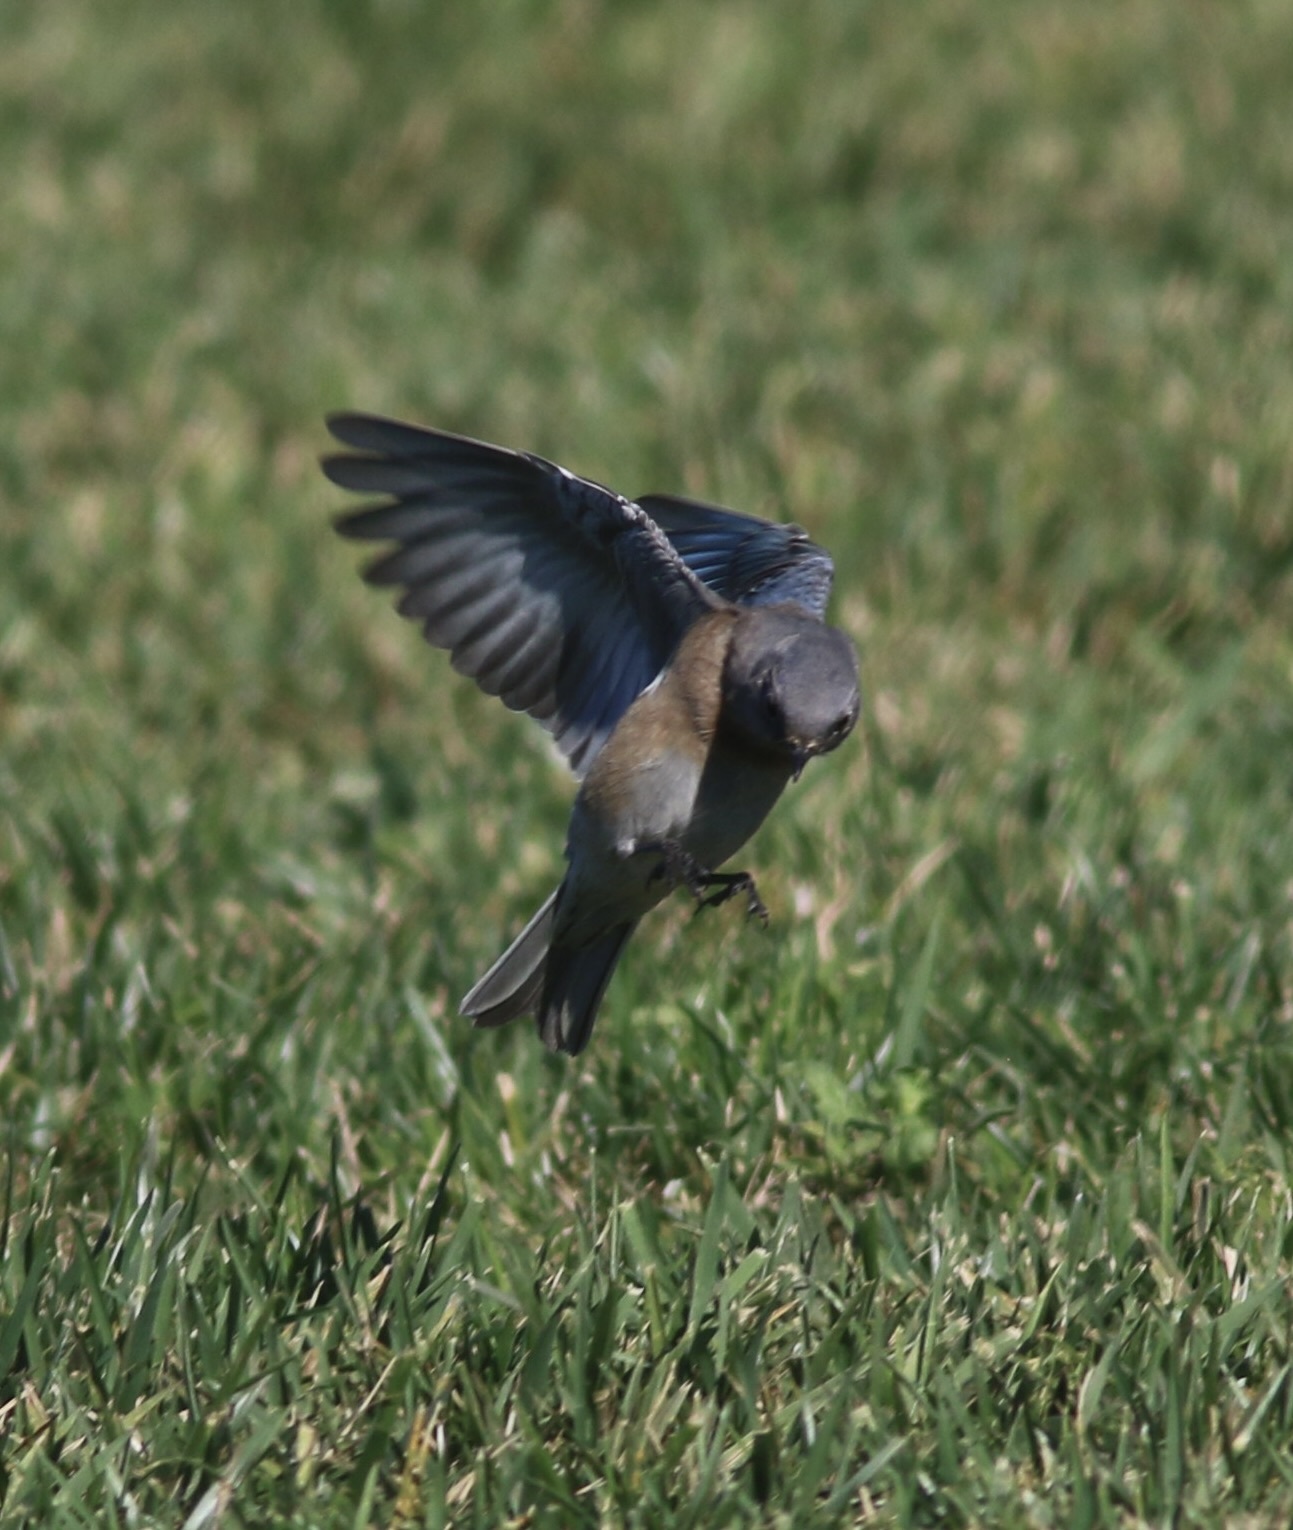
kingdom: Animalia
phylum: Chordata
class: Aves
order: Passeriformes
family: Turdidae
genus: Sialia
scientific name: Sialia mexicana
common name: Western bluebird
